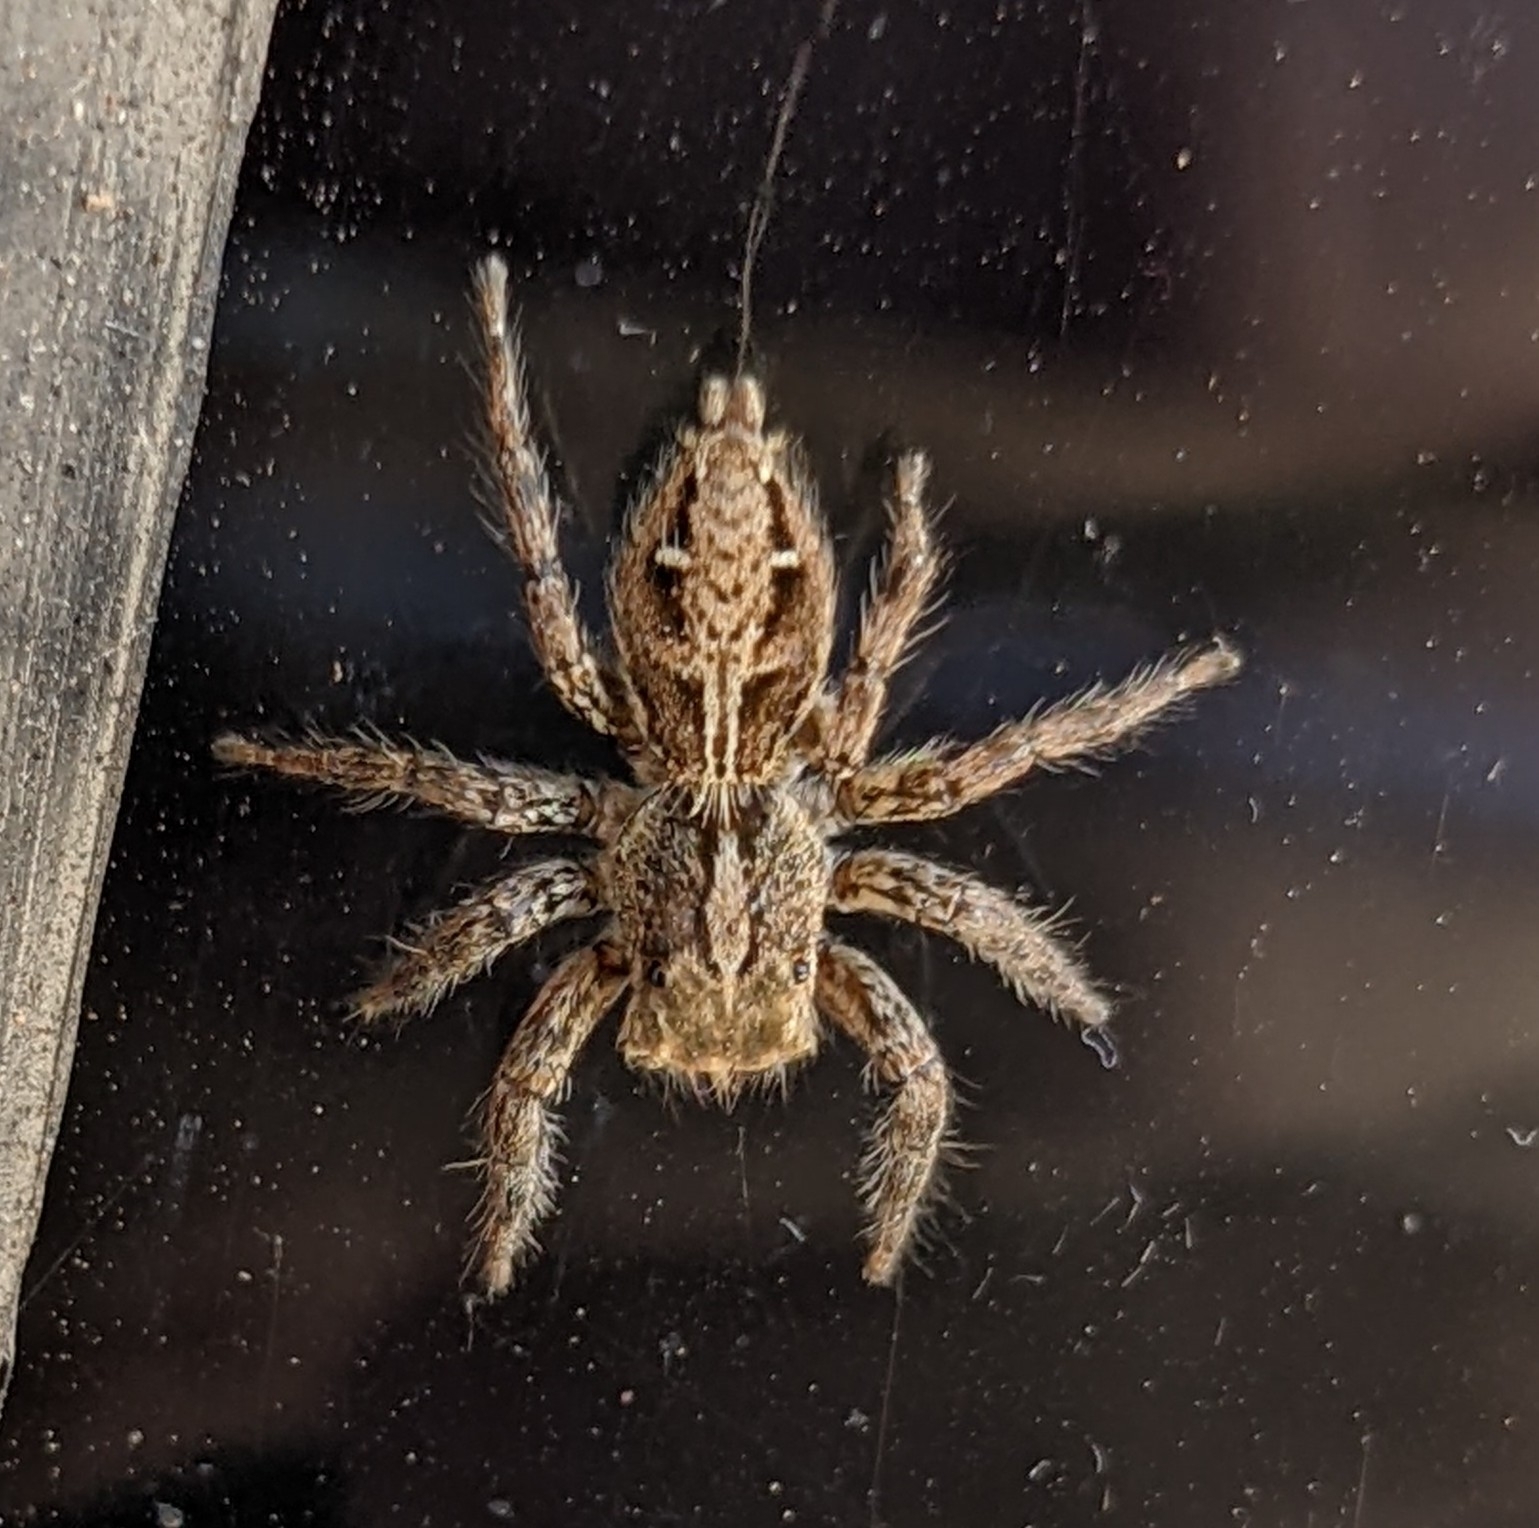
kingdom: Animalia
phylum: Arthropoda
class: Arachnida
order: Araneae
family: Salticidae
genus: Plexippus
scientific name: Plexippus paykulli
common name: Pantropical jumper
